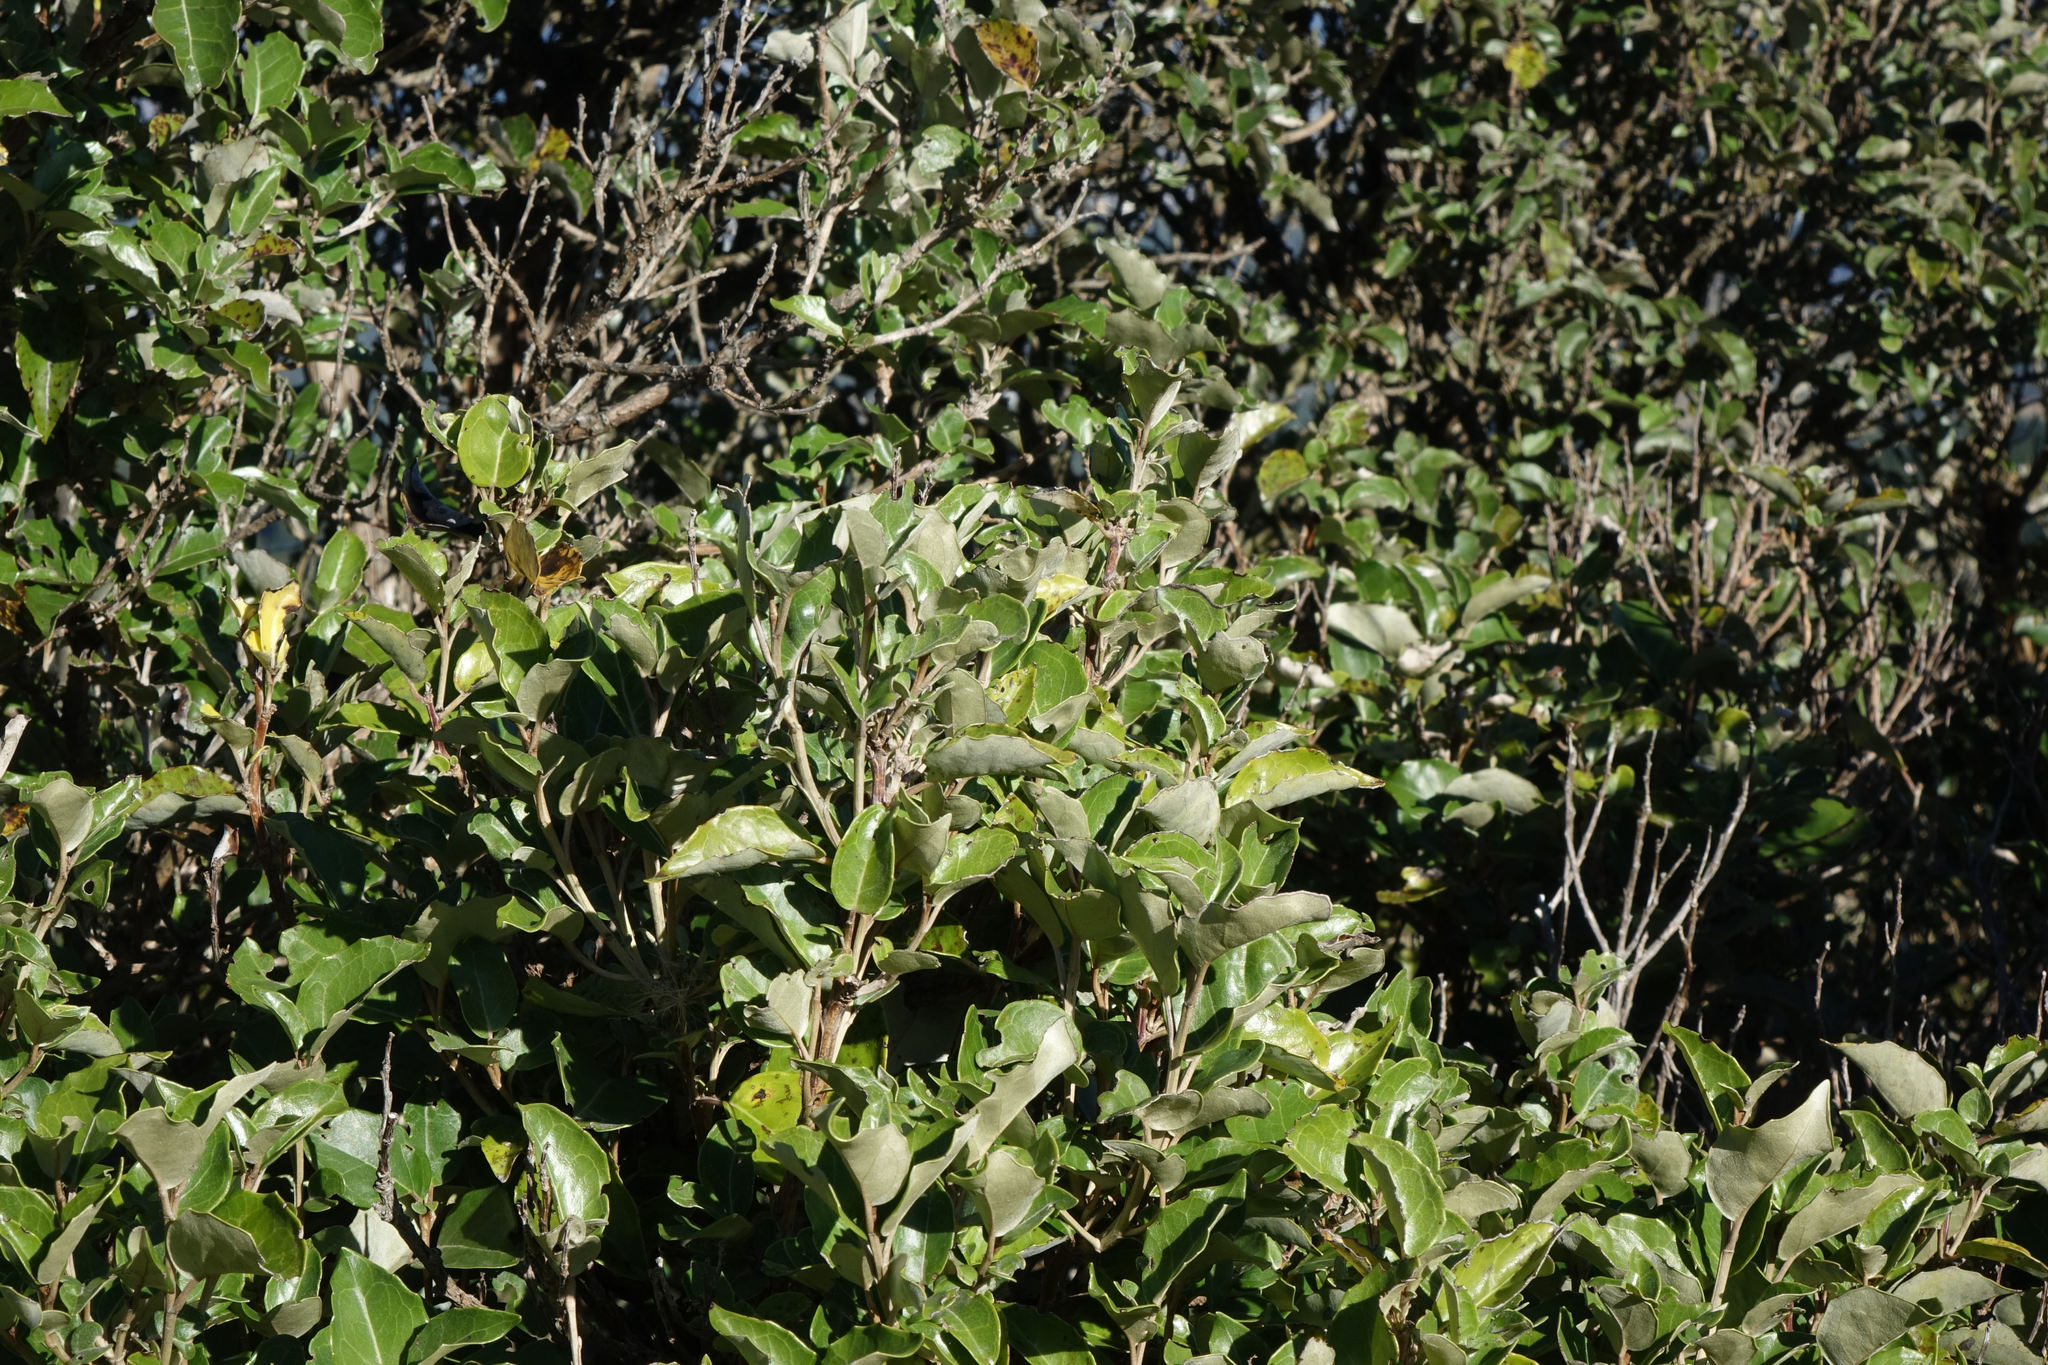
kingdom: Plantae
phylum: Tracheophyta
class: Magnoliopsida
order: Asterales
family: Asteraceae
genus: Olearia
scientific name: Olearia arborescens
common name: Glossy tree daisy
